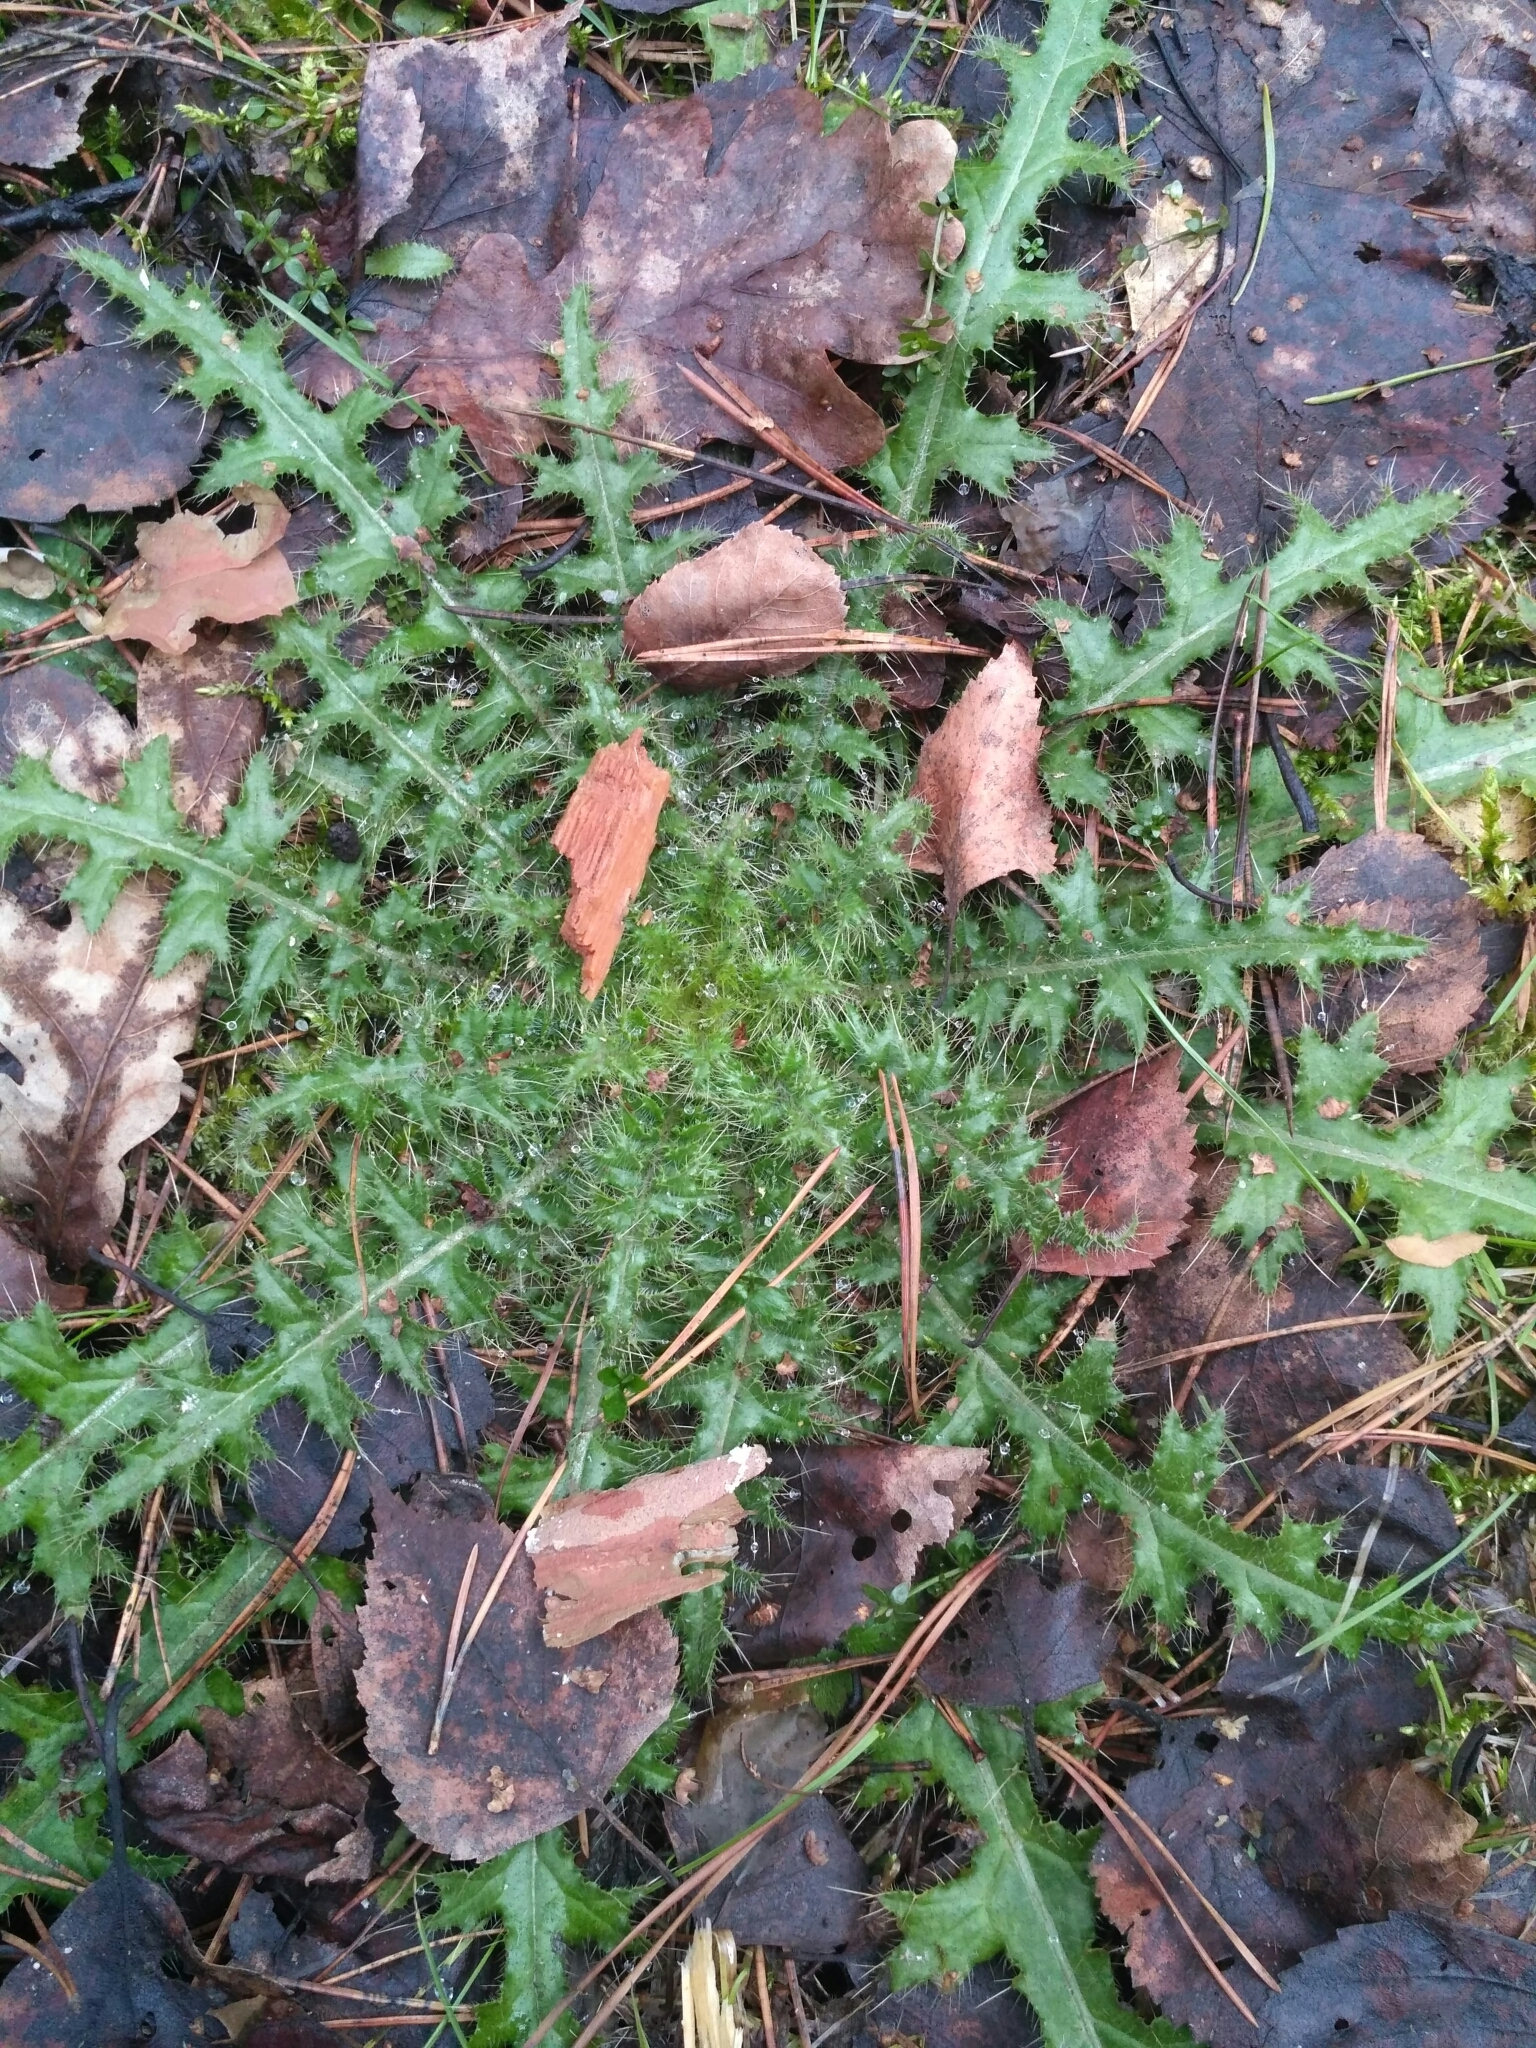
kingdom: Plantae
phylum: Tracheophyta
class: Magnoliopsida
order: Asterales
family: Asteraceae
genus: Cirsium
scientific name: Cirsium palustre
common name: Marsh thistle
